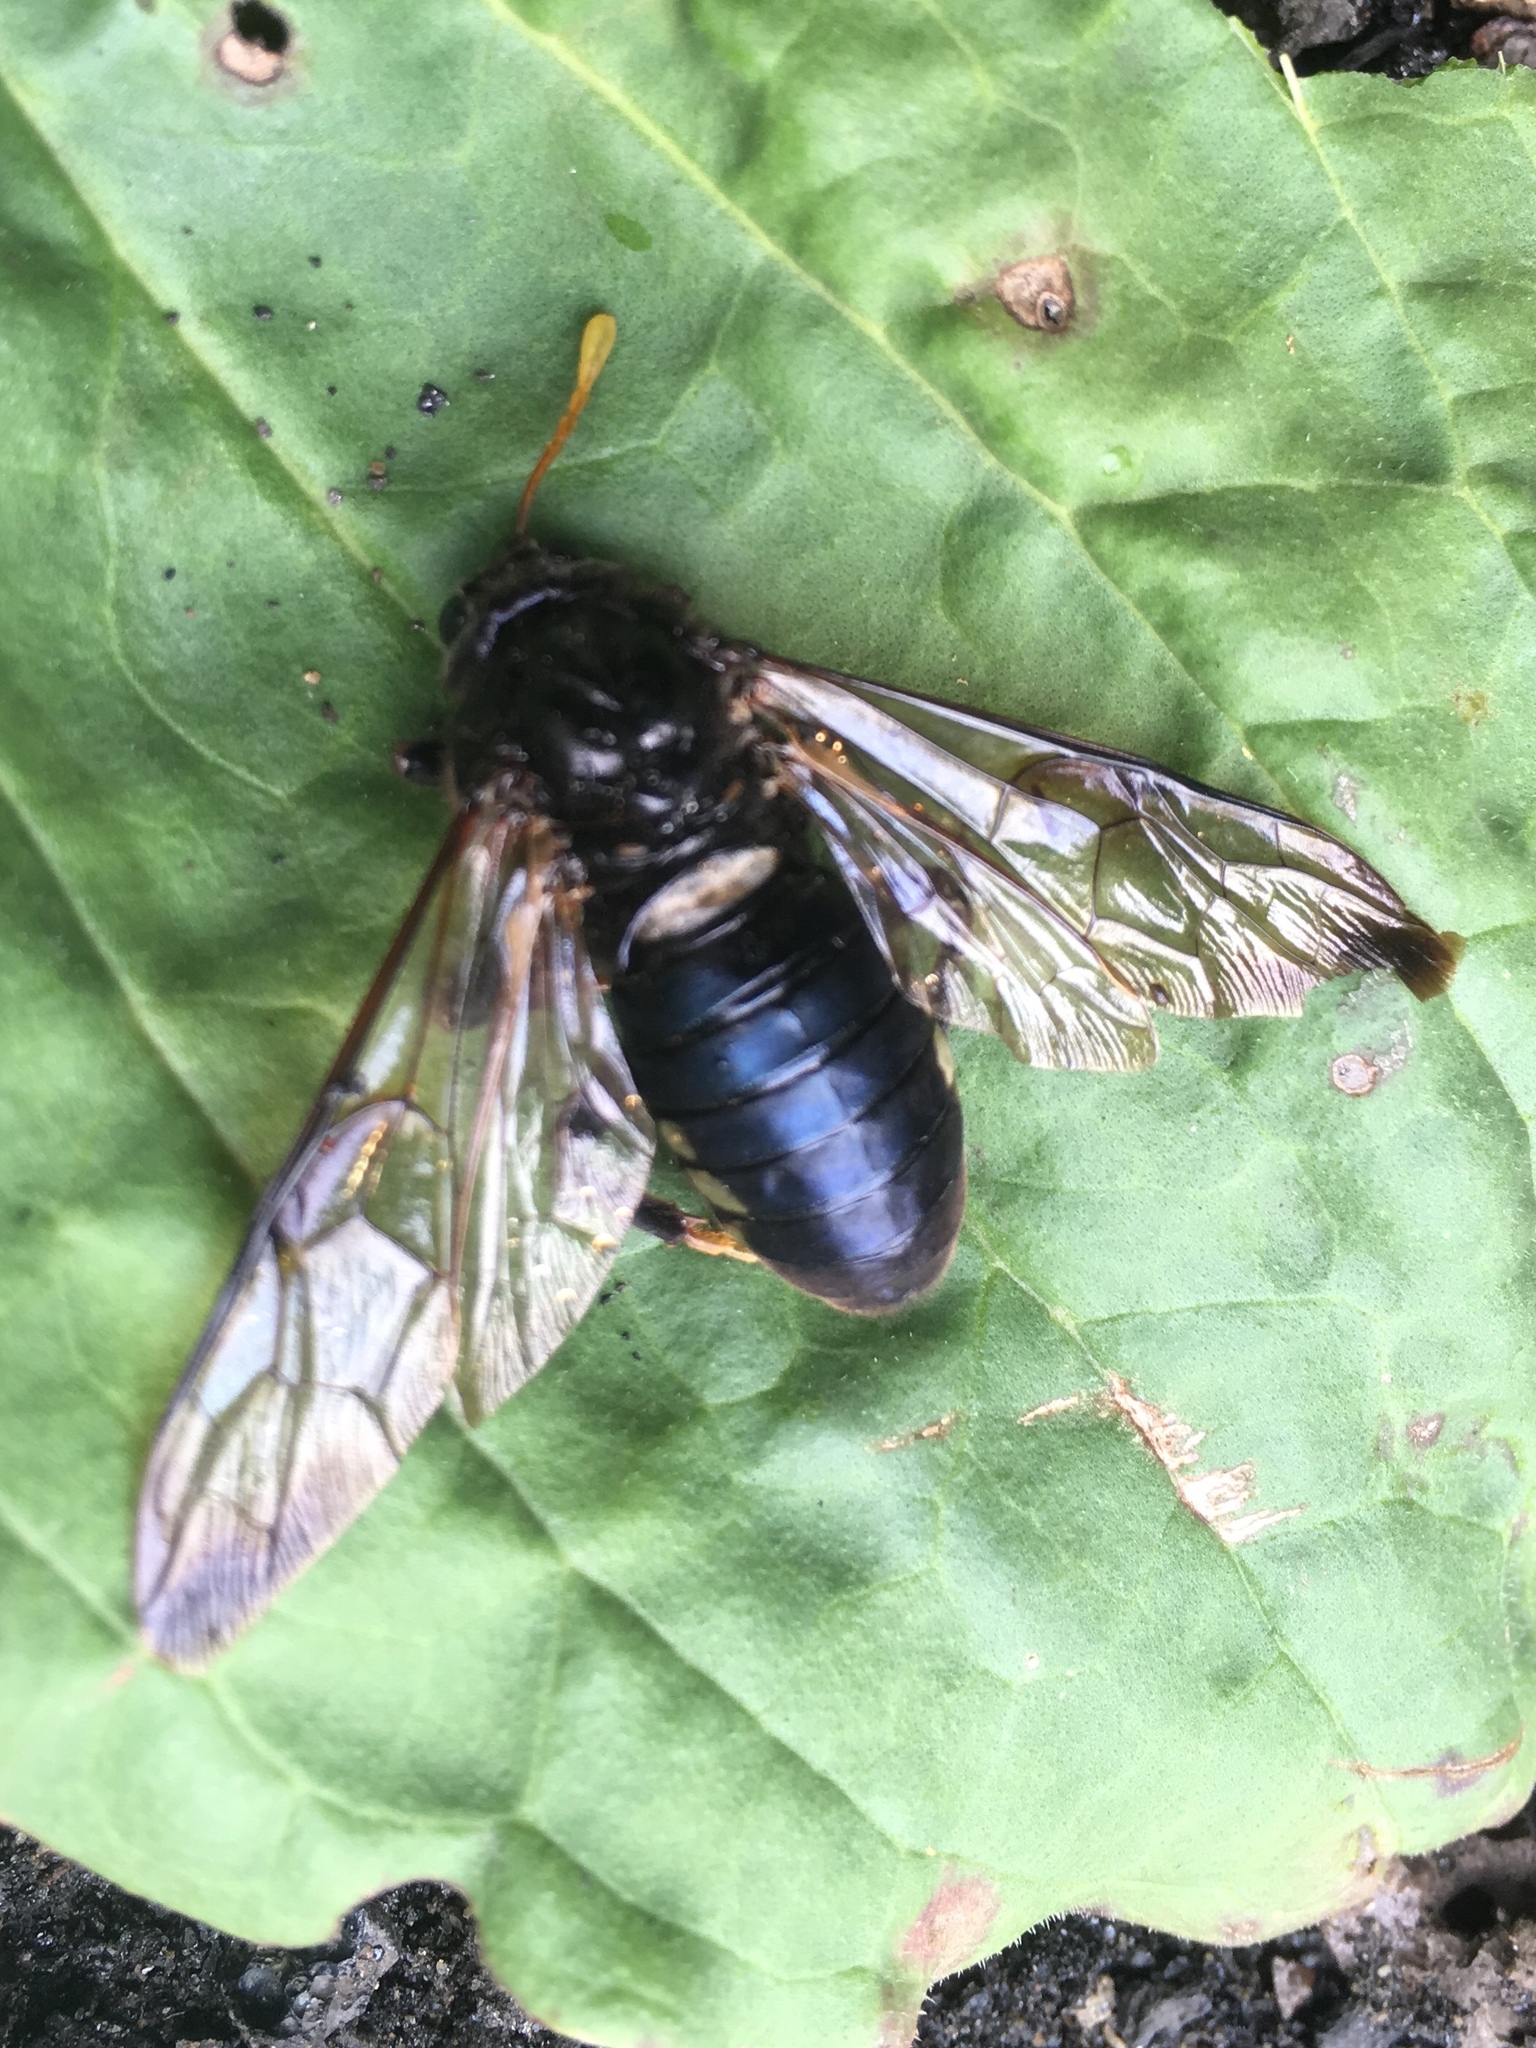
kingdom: Animalia
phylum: Arthropoda
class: Insecta
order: Hymenoptera
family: Cimbicidae
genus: Cimbex
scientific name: Cimbex americana
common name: Elm sawfly
